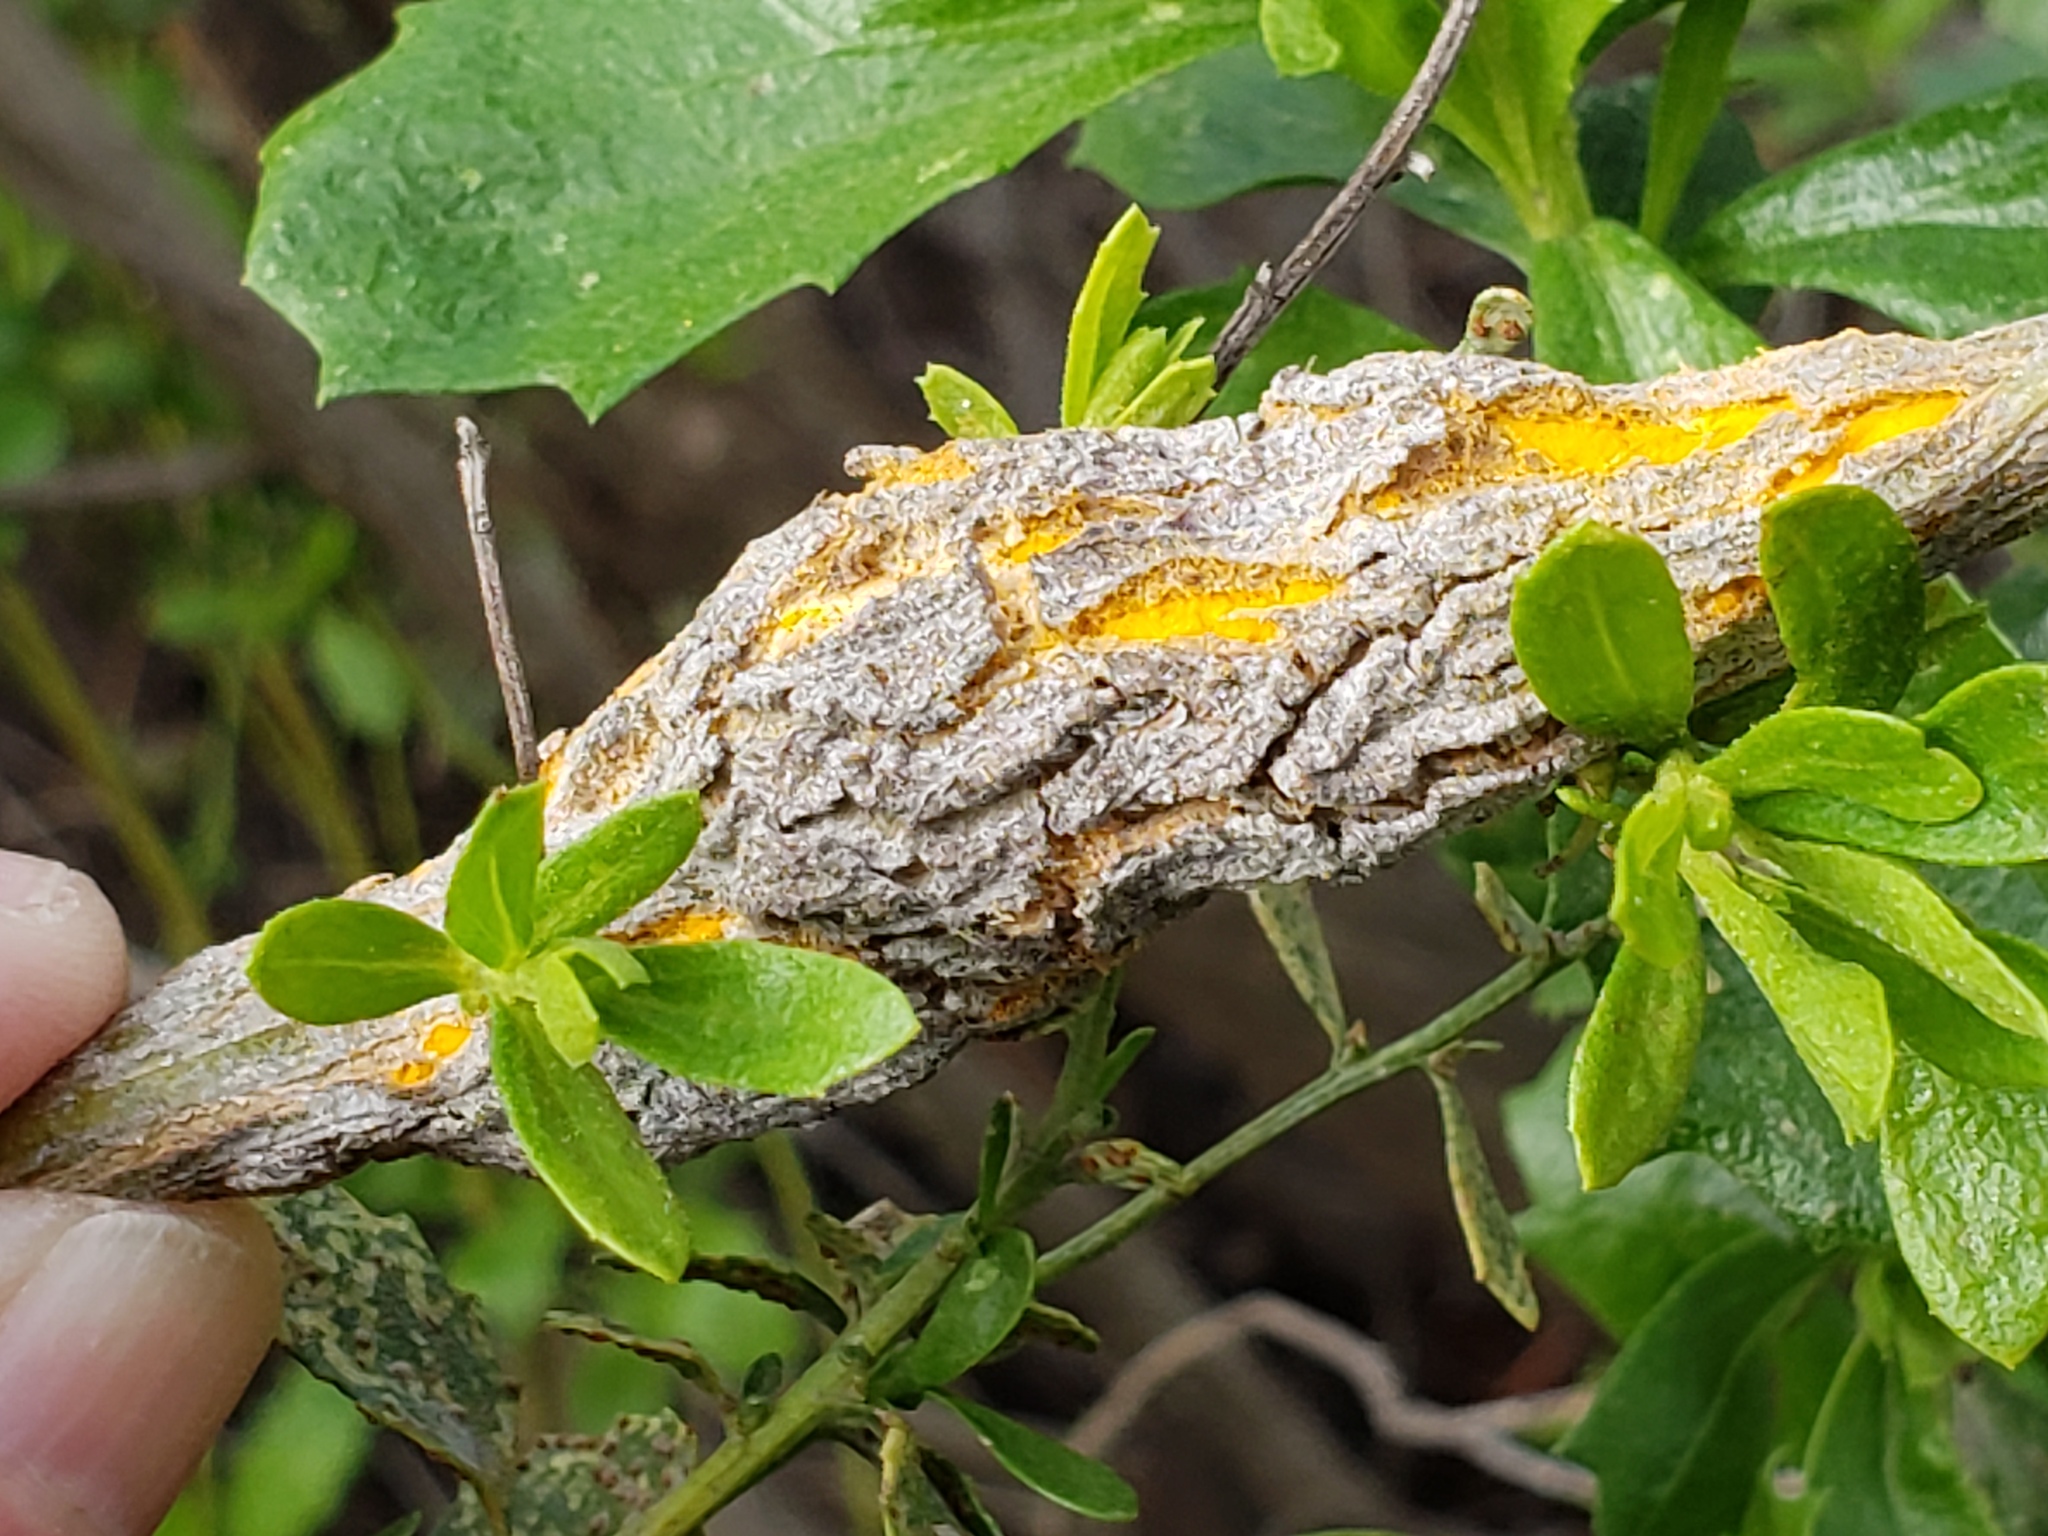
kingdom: Fungi
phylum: Basidiomycota
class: Pucciniomycetes
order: Pucciniales
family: Pucciniaceae
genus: Eriosporangium
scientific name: Eriosporangium evadens
